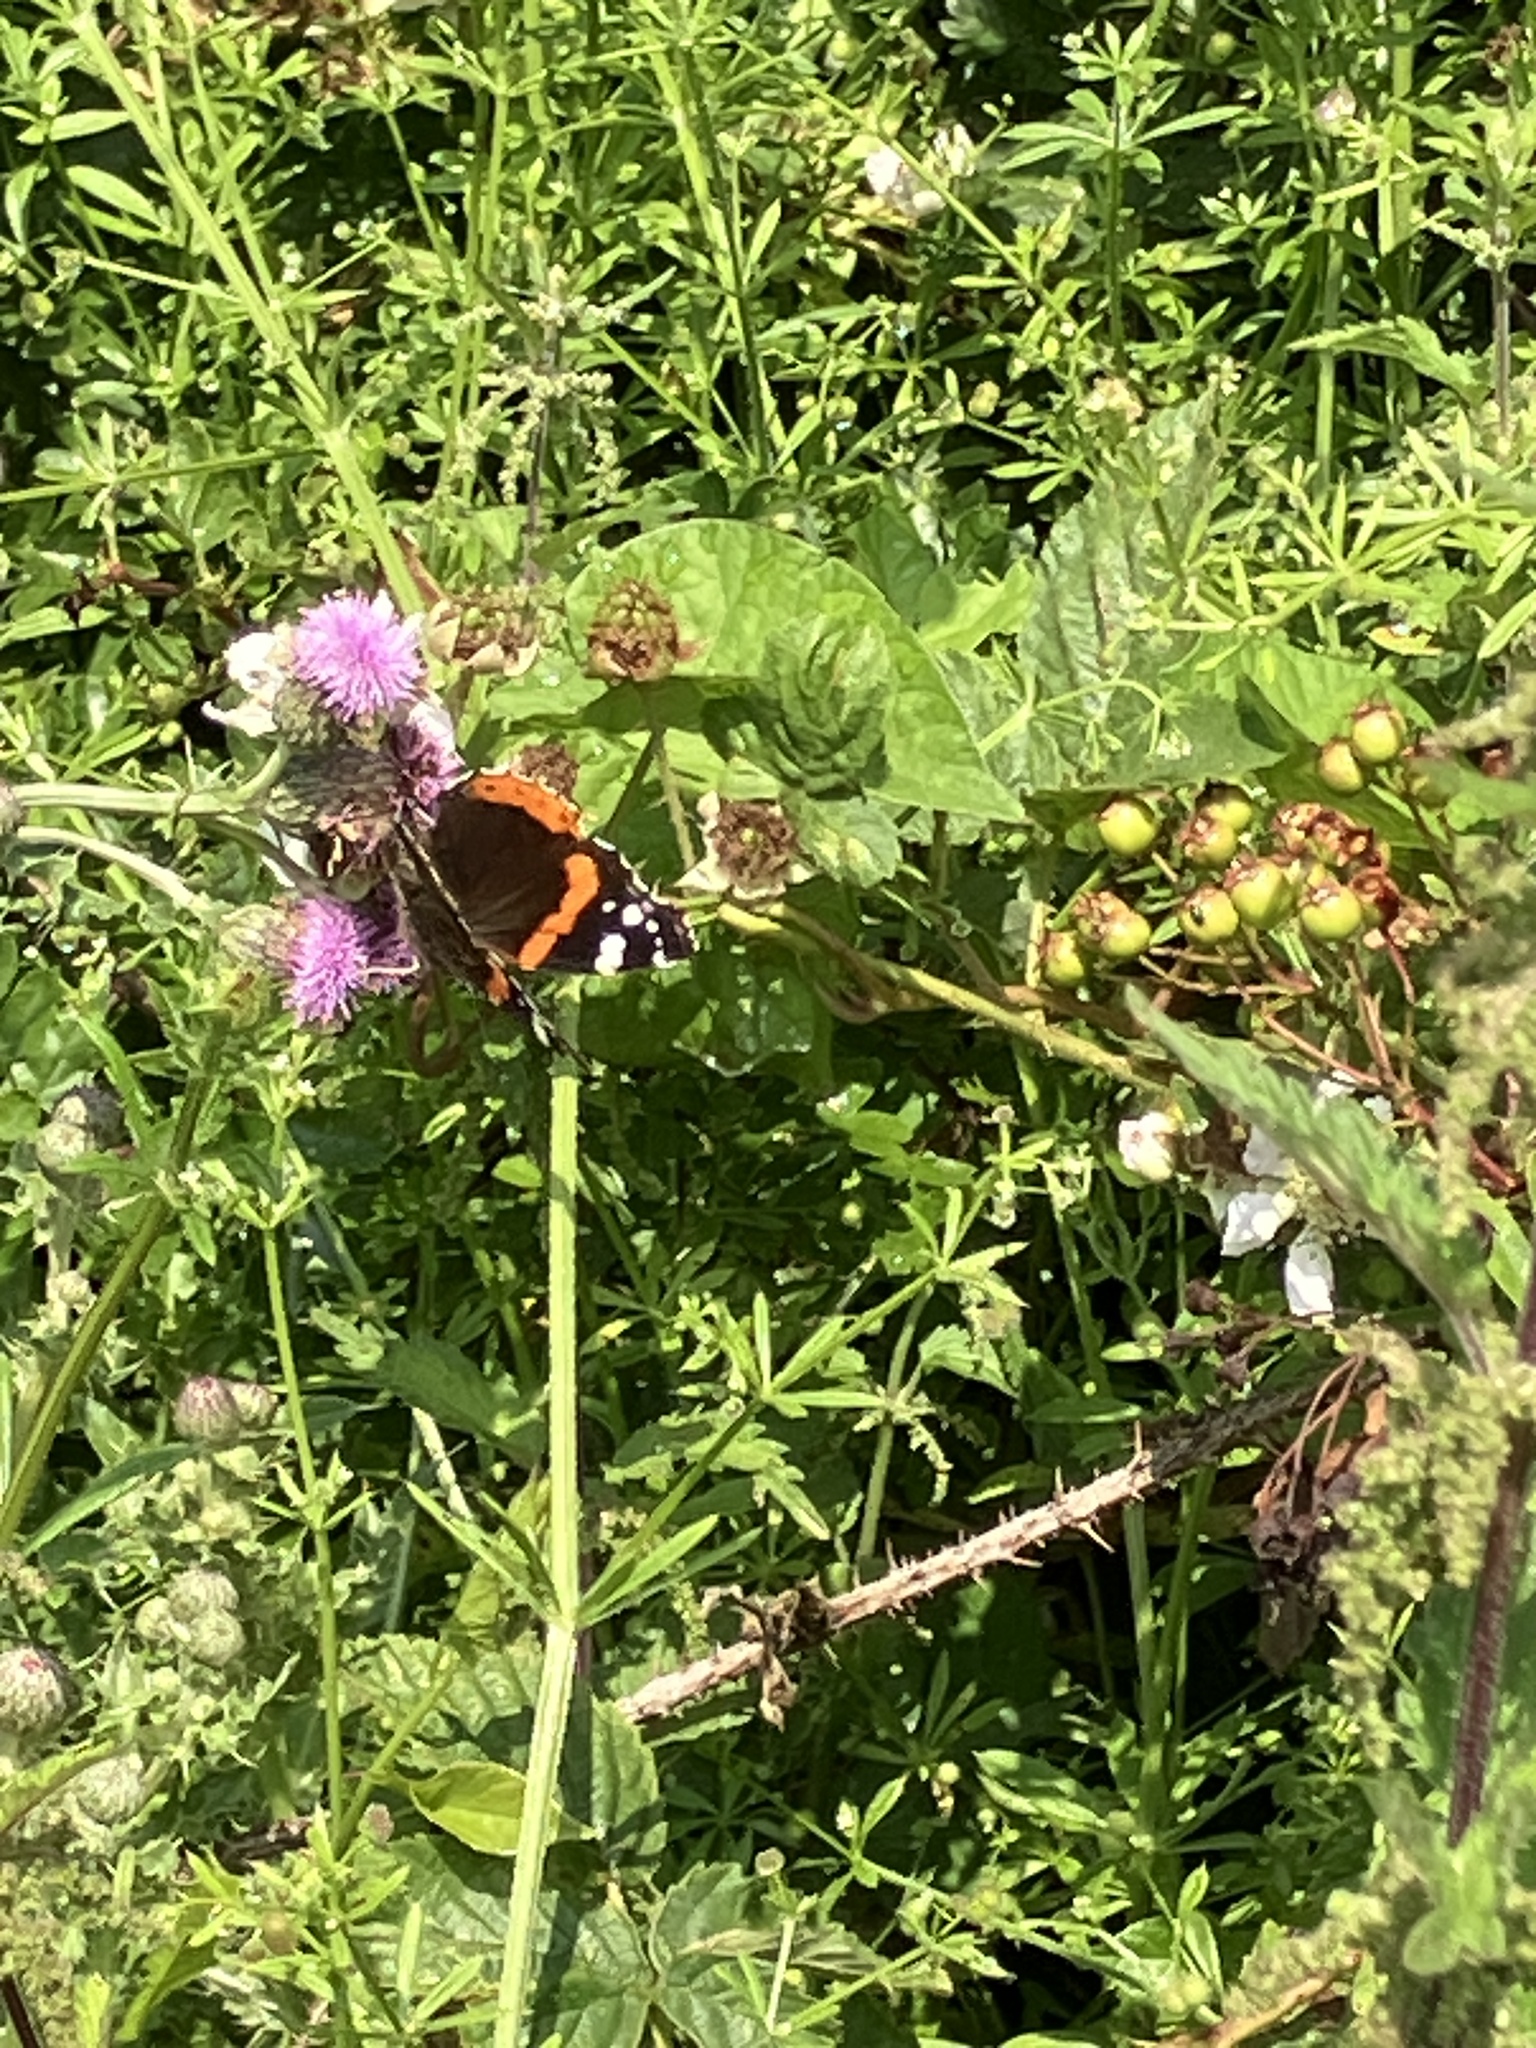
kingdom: Animalia
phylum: Arthropoda
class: Insecta
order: Lepidoptera
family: Nymphalidae
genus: Vanessa
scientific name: Vanessa atalanta
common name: Red admiral
